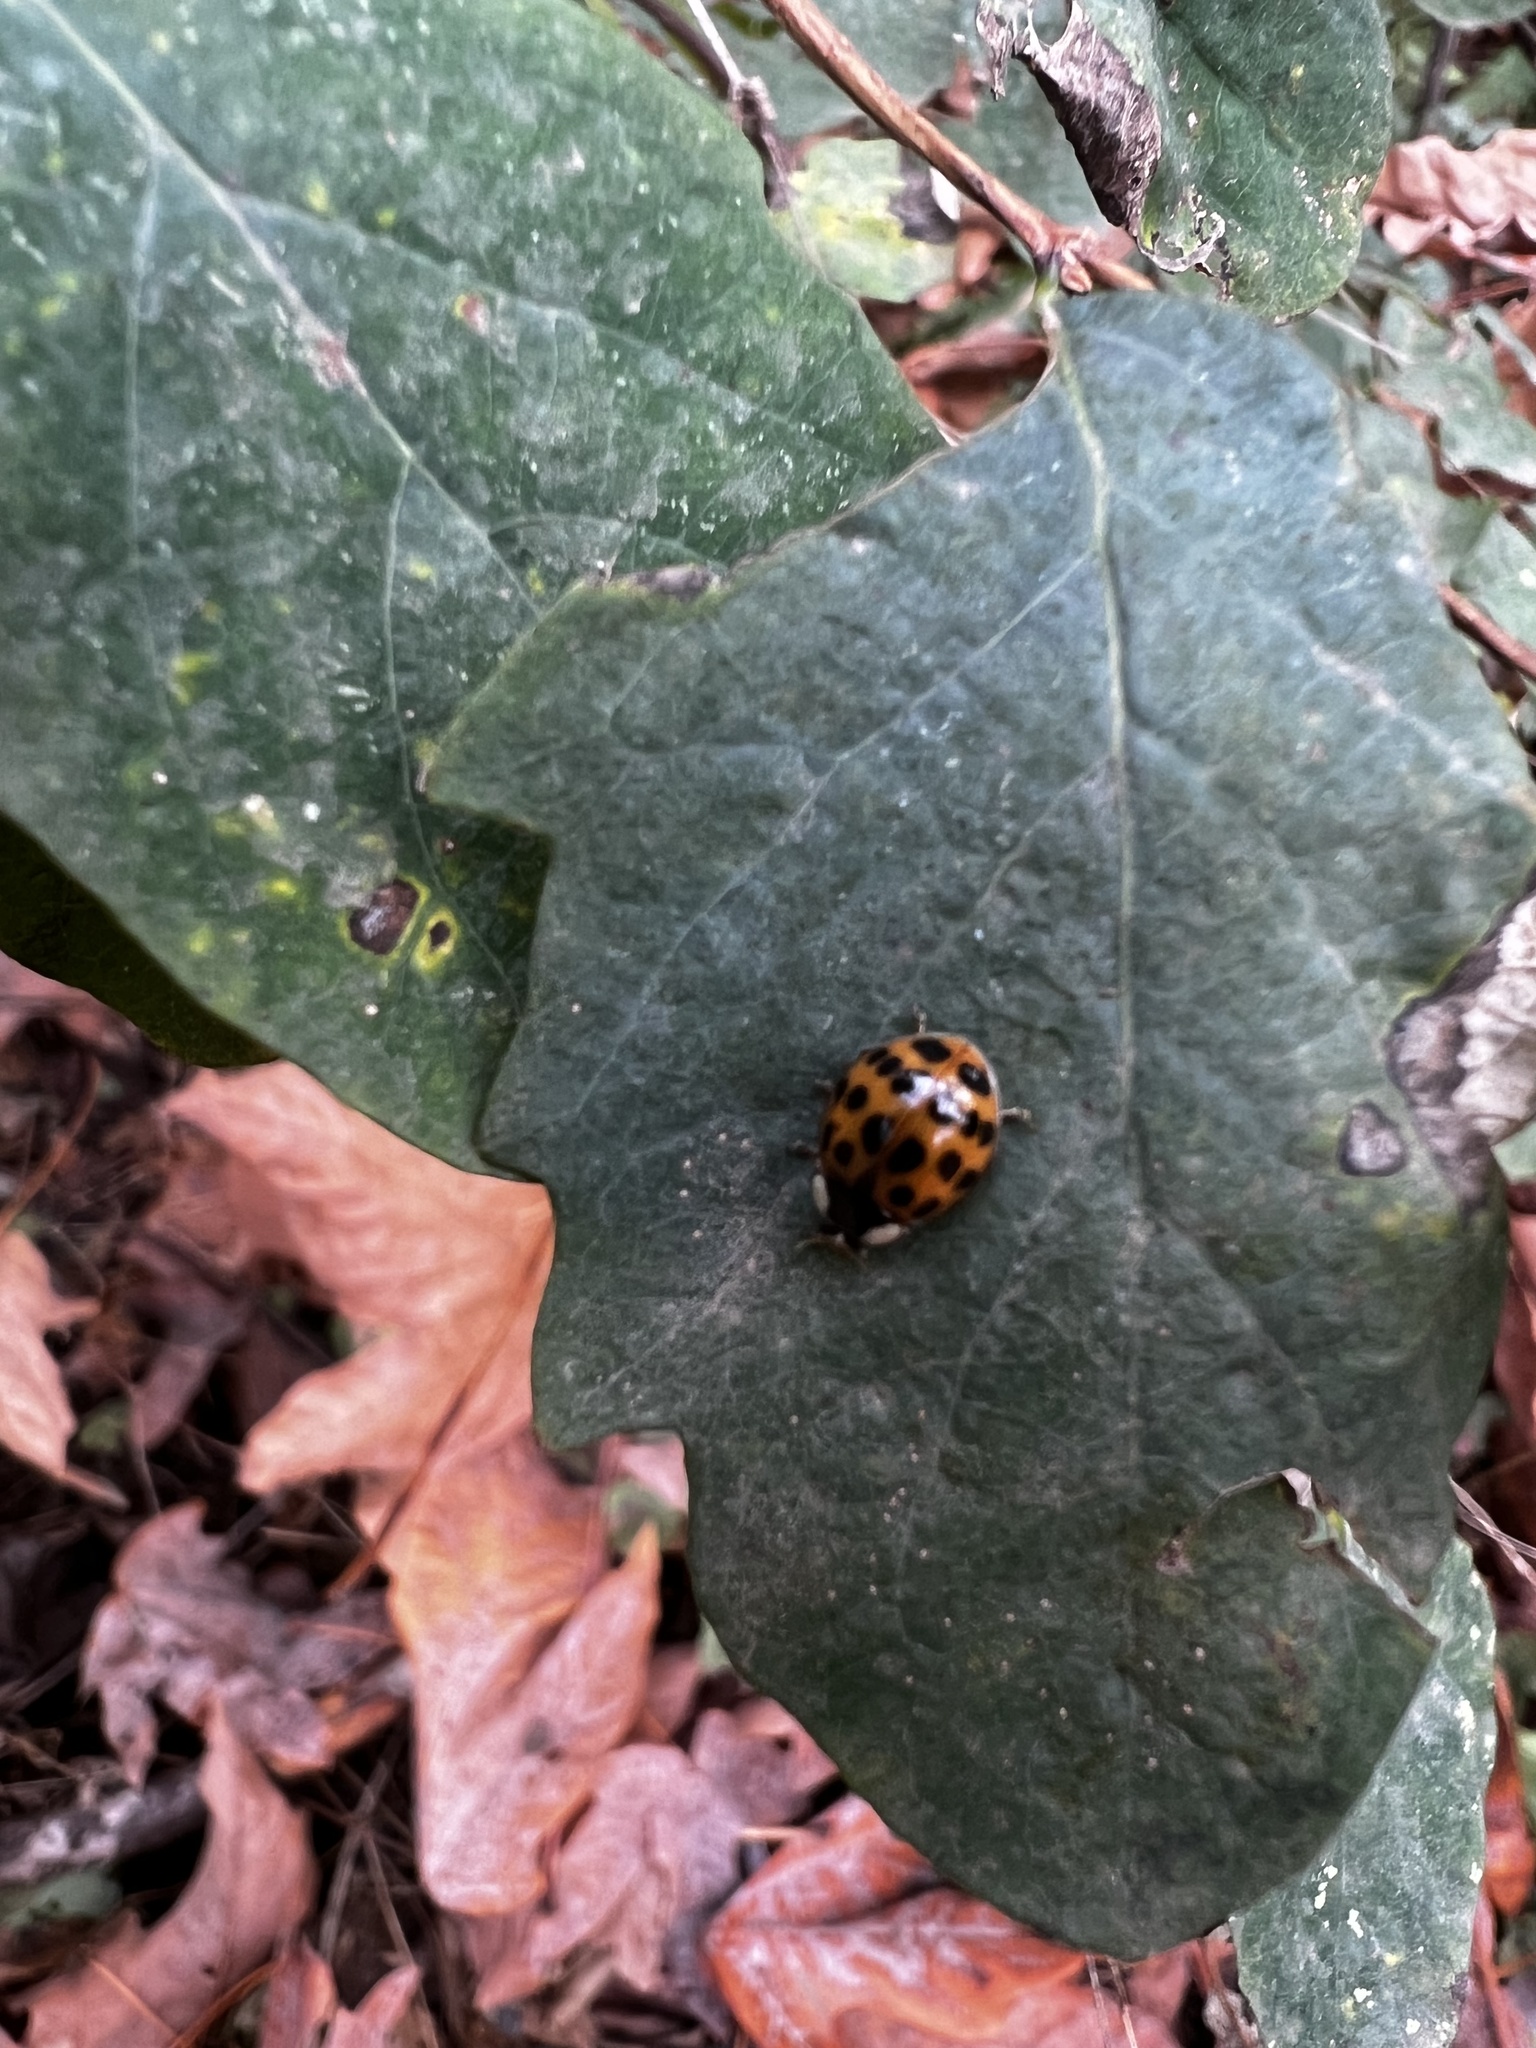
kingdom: Animalia
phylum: Arthropoda
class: Insecta
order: Coleoptera
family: Coccinellidae
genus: Harmonia
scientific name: Harmonia axyridis
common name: Harlequin ladybird
